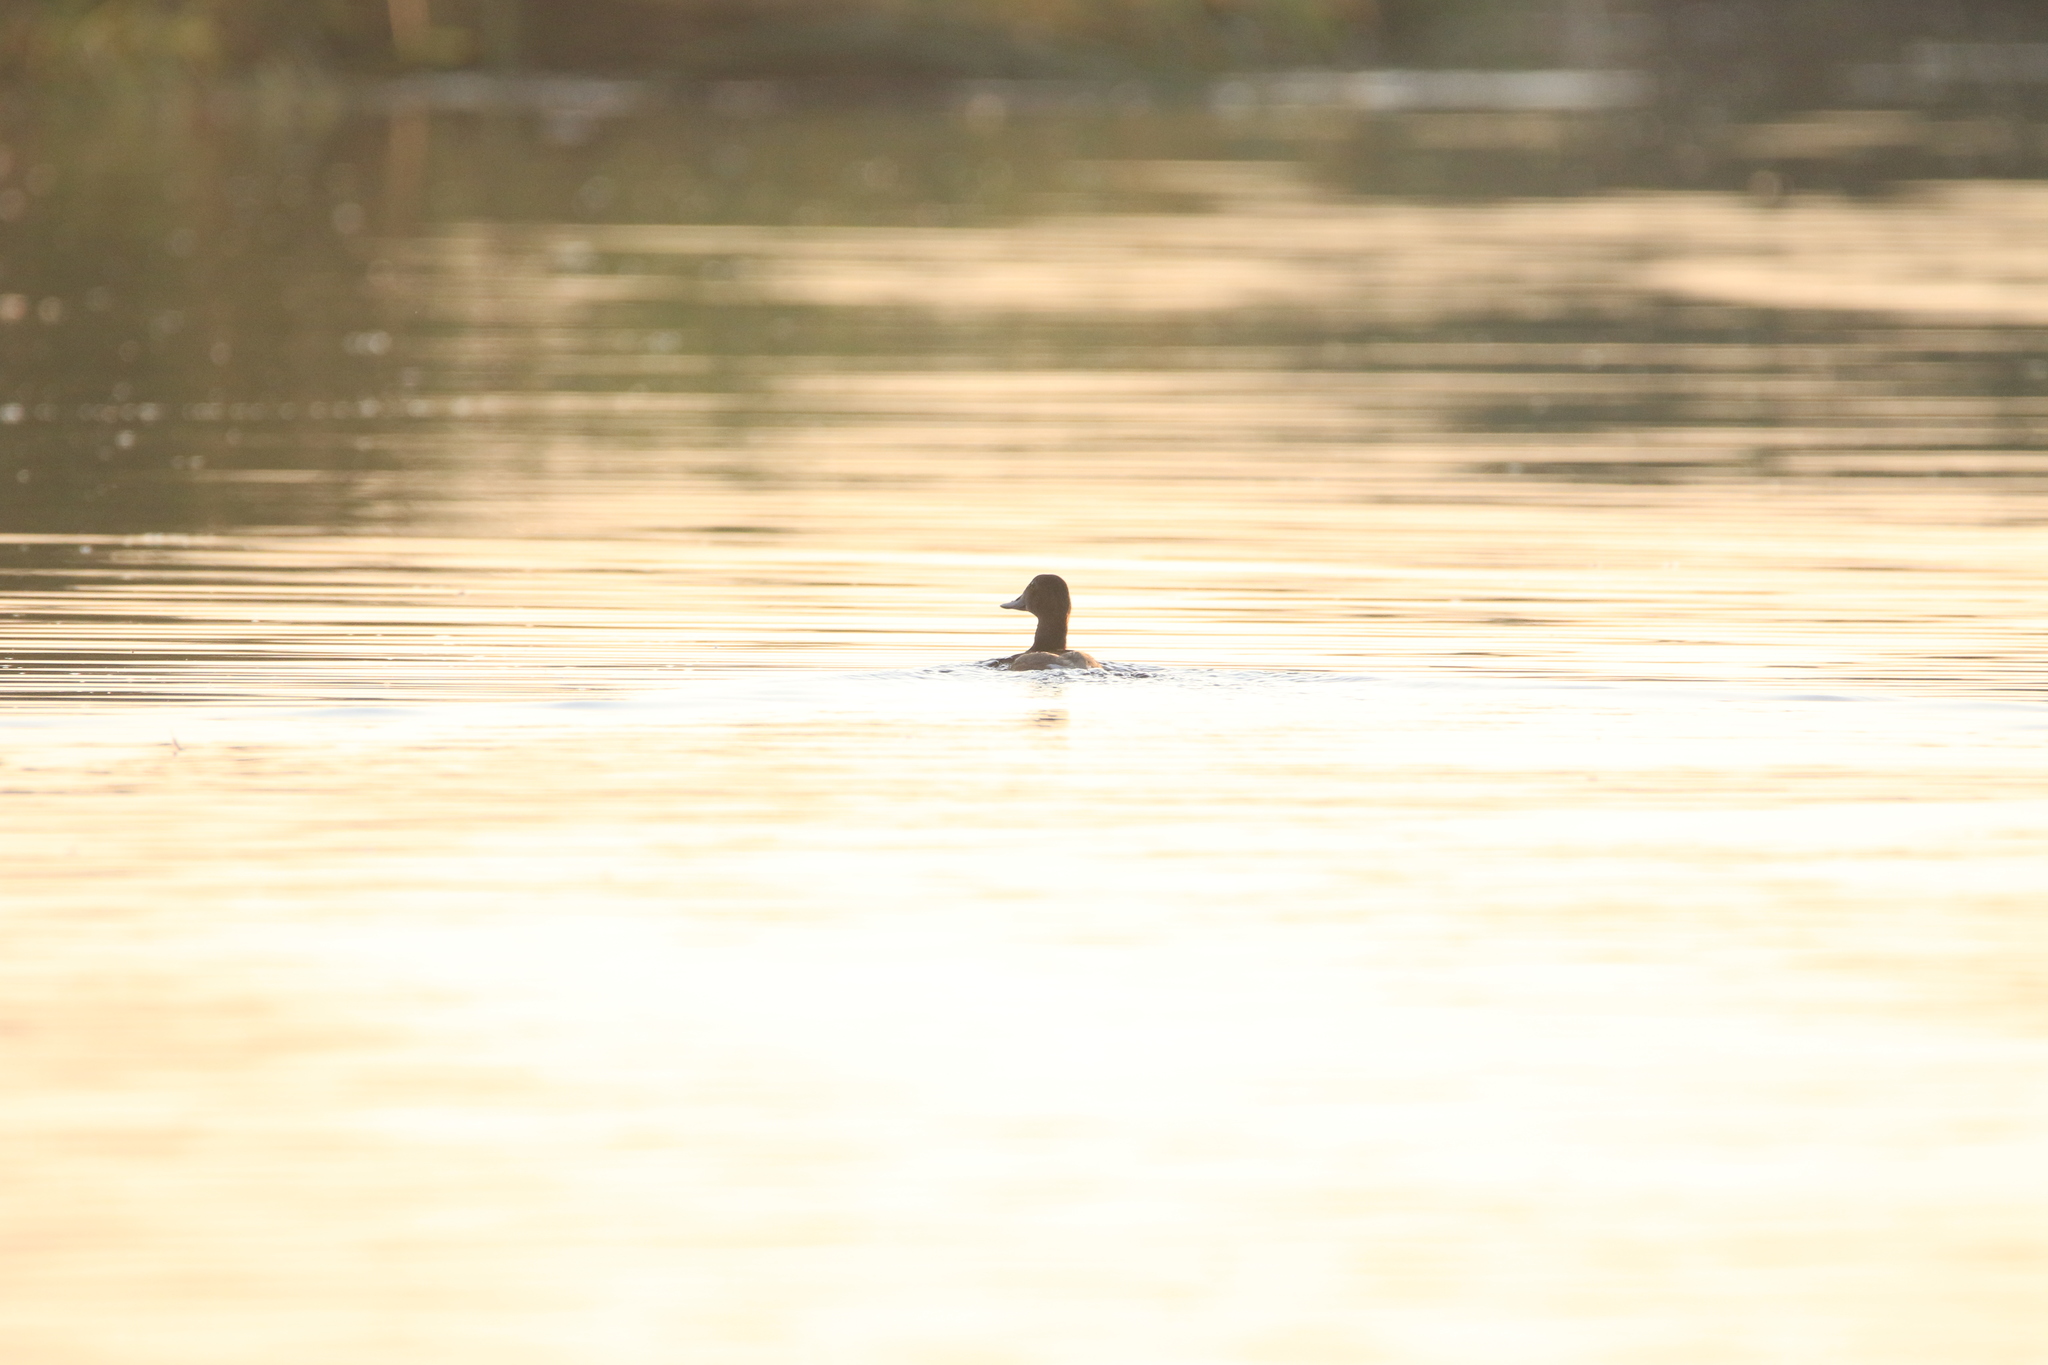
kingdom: Animalia
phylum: Chordata
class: Aves
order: Anseriformes
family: Anatidae
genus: Aythya
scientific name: Aythya ferina
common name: Common pochard
